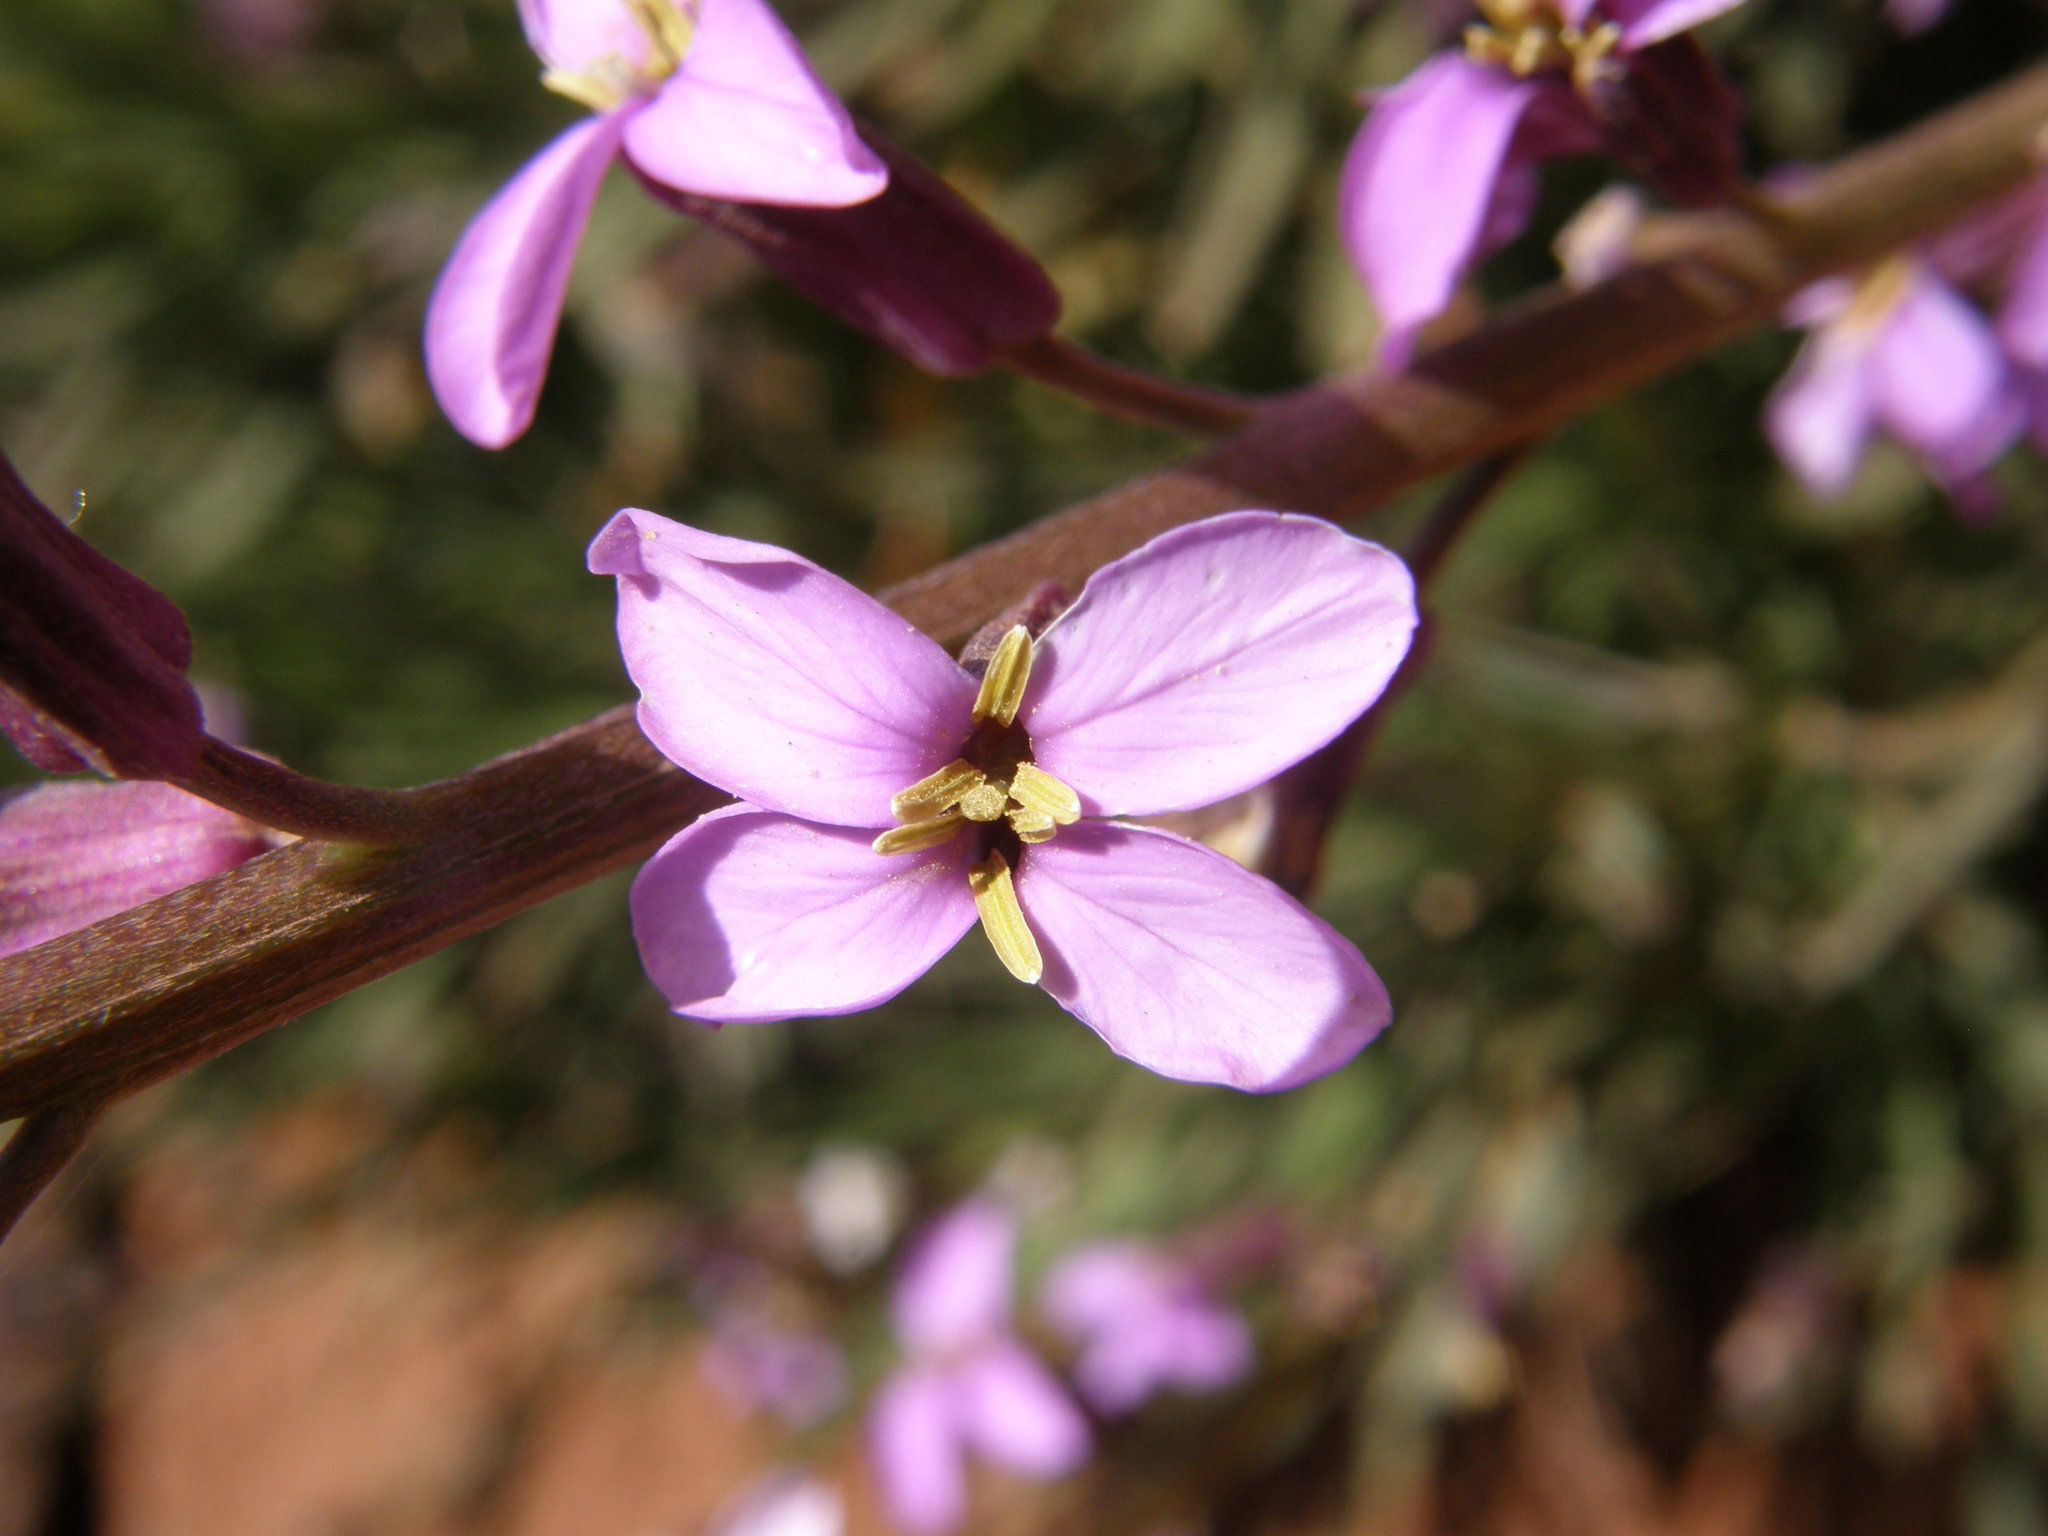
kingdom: Plantae
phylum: Tracheophyta
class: Magnoliopsida
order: Brassicales
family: Brassicaceae
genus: Erysimum
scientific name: Erysimum scoparium
